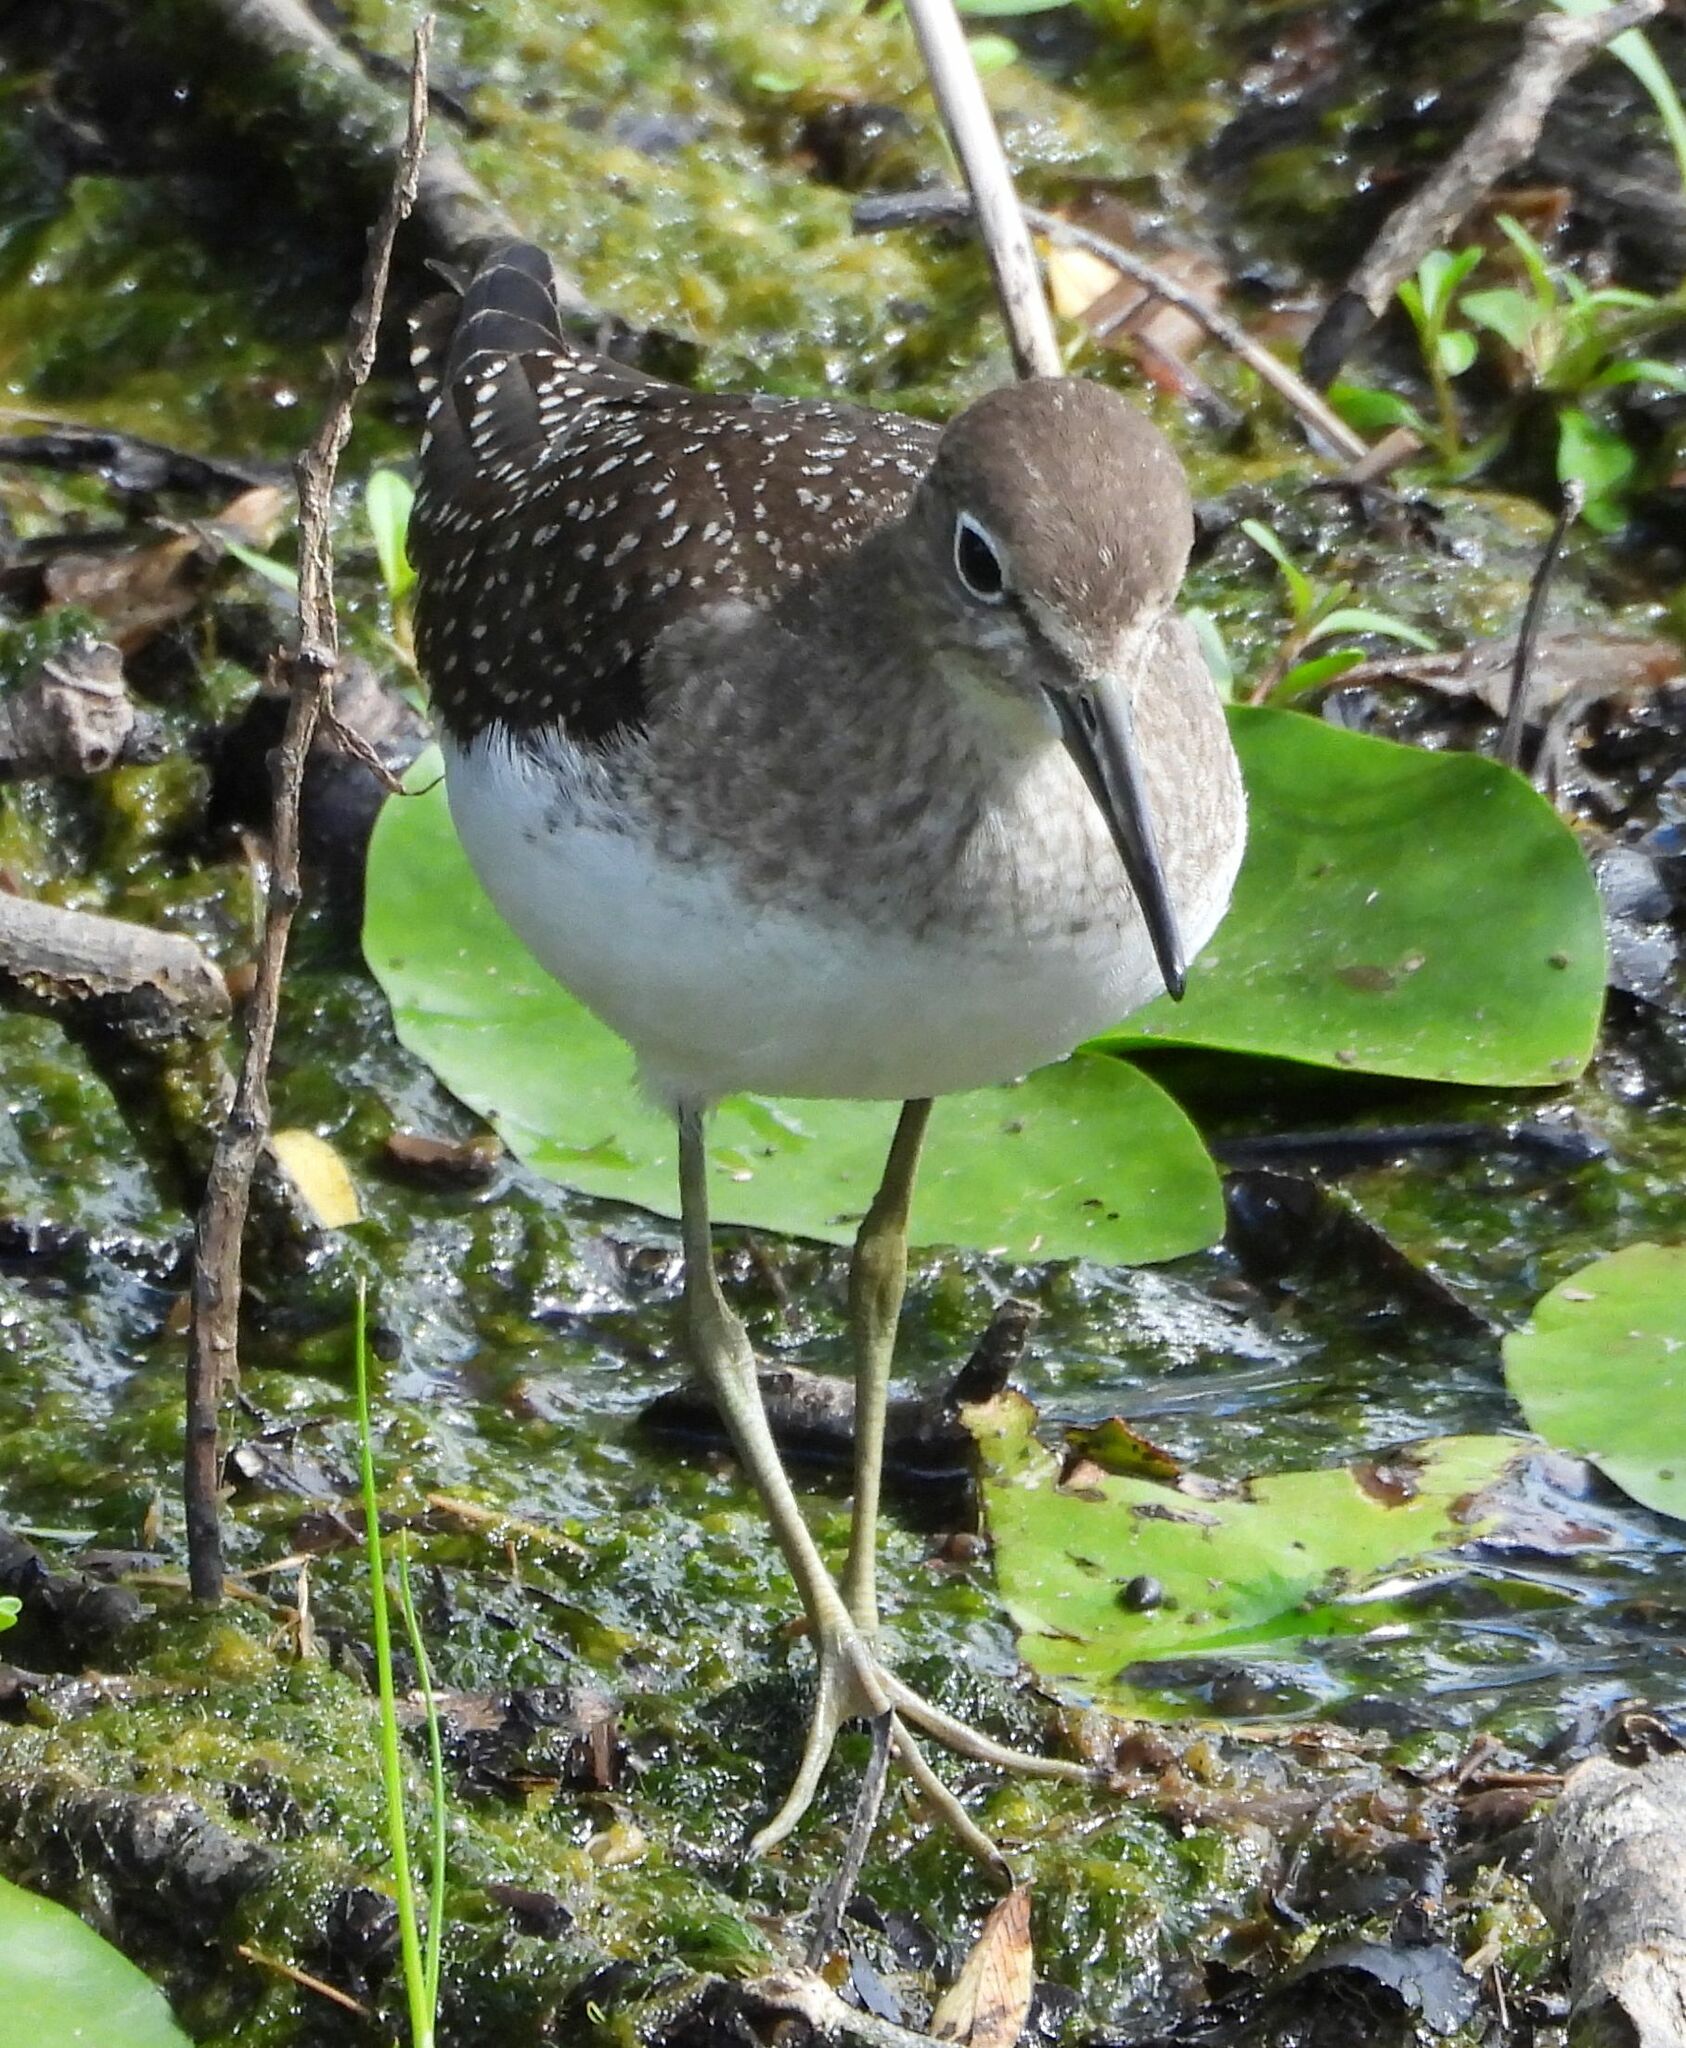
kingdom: Animalia
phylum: Chordata
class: Aves
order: Charadriiformes
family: Scolopacidae
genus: Tringa
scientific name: Tringa solitaria
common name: Solitary sandpiper
